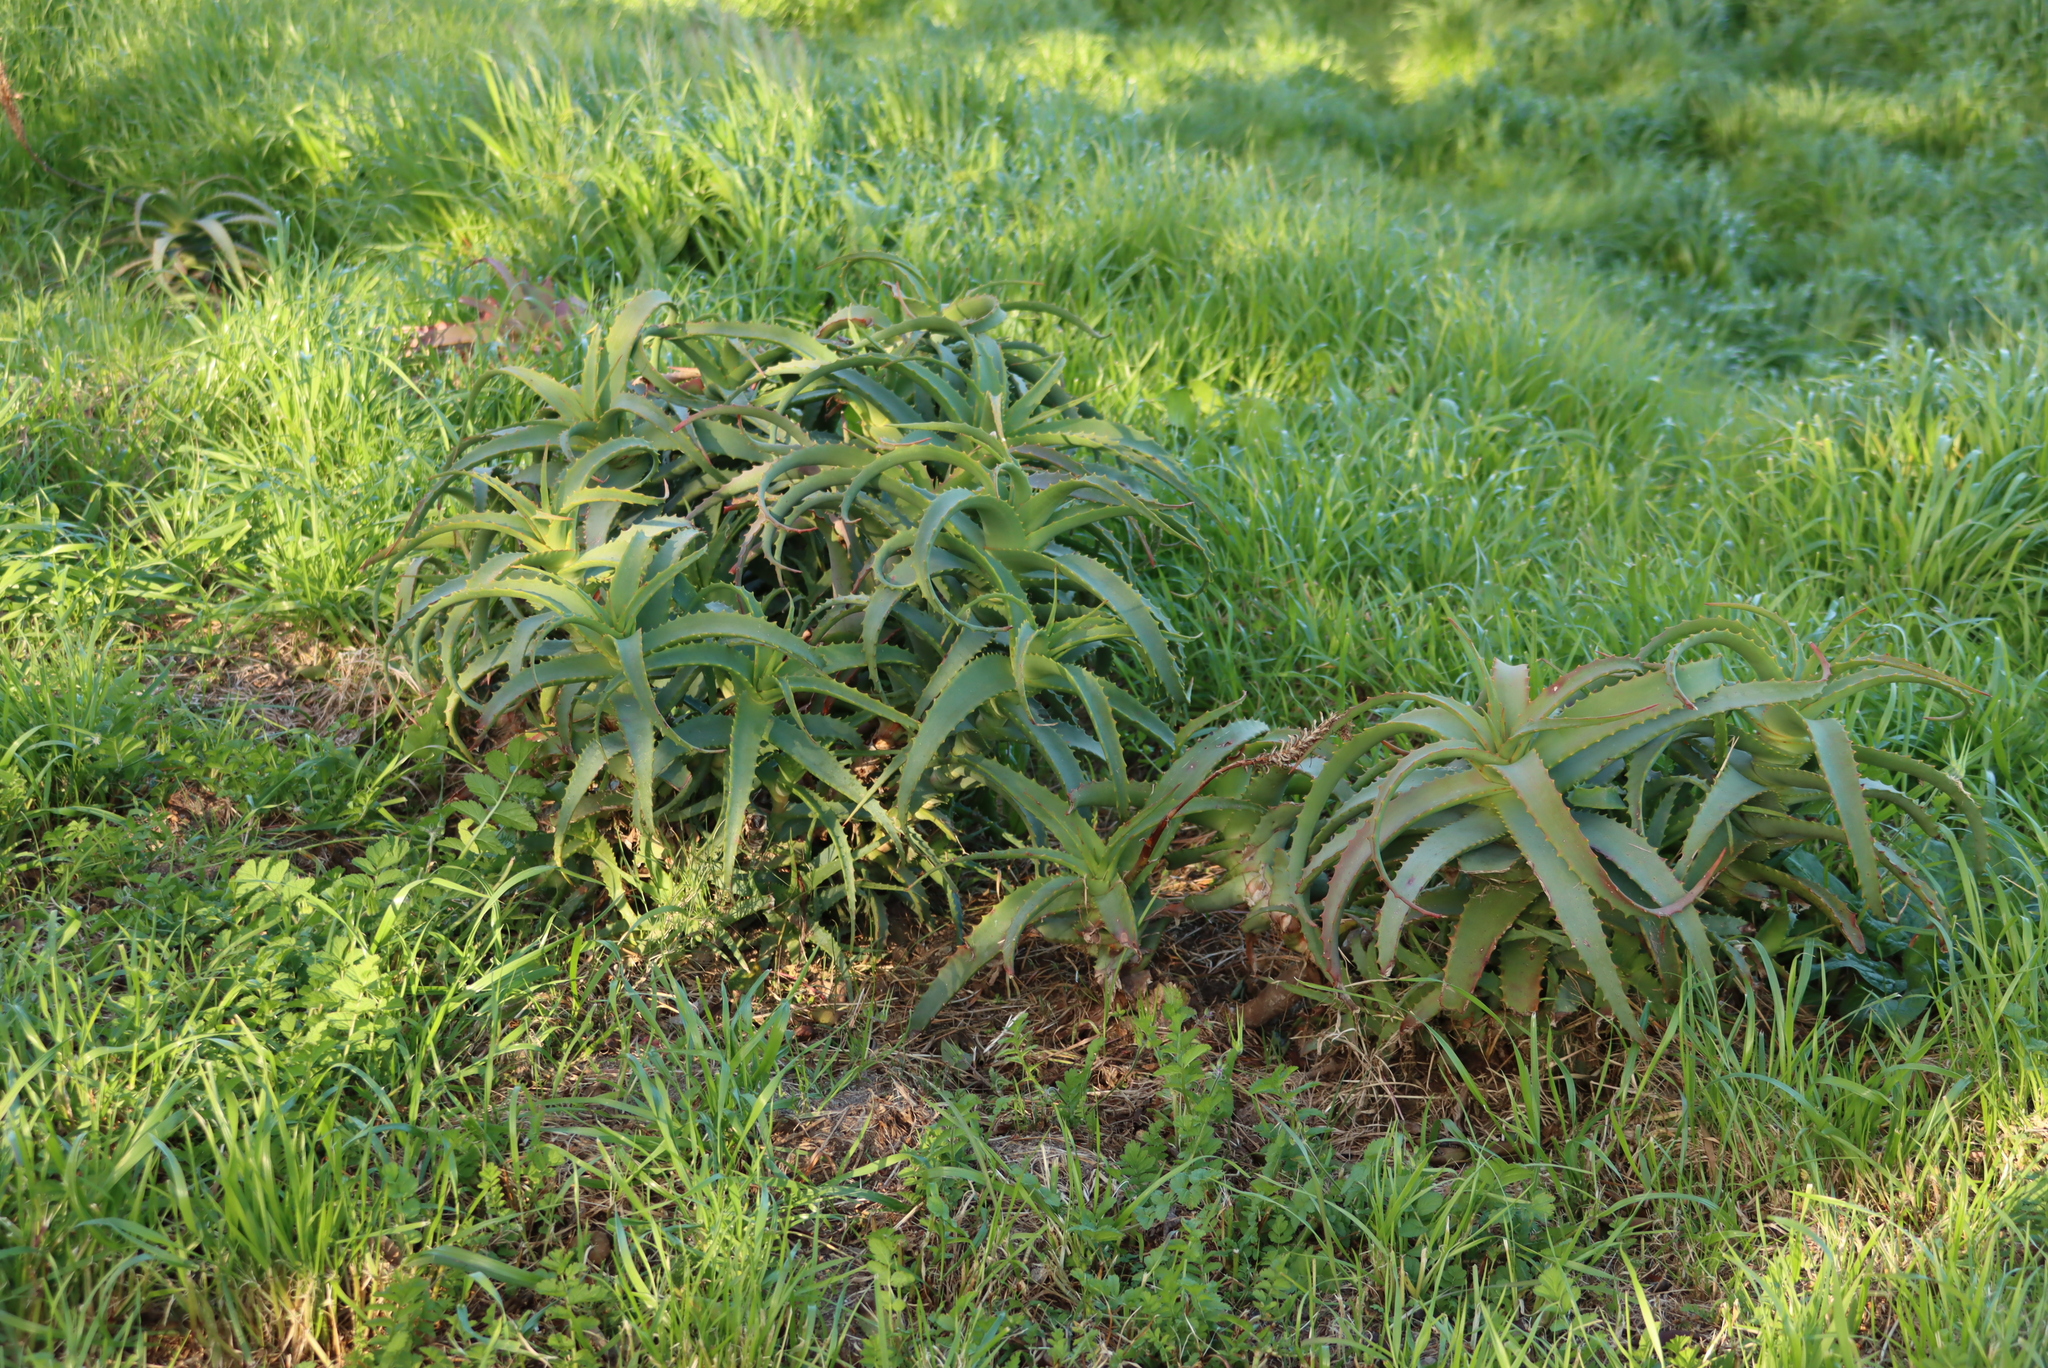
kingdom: Plantae
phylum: Tracheophyta
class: Liliopsida
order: Asparagales
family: Asphodelaceae
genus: Aloe
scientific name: Aloe arborescens
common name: Candelabra aloe
